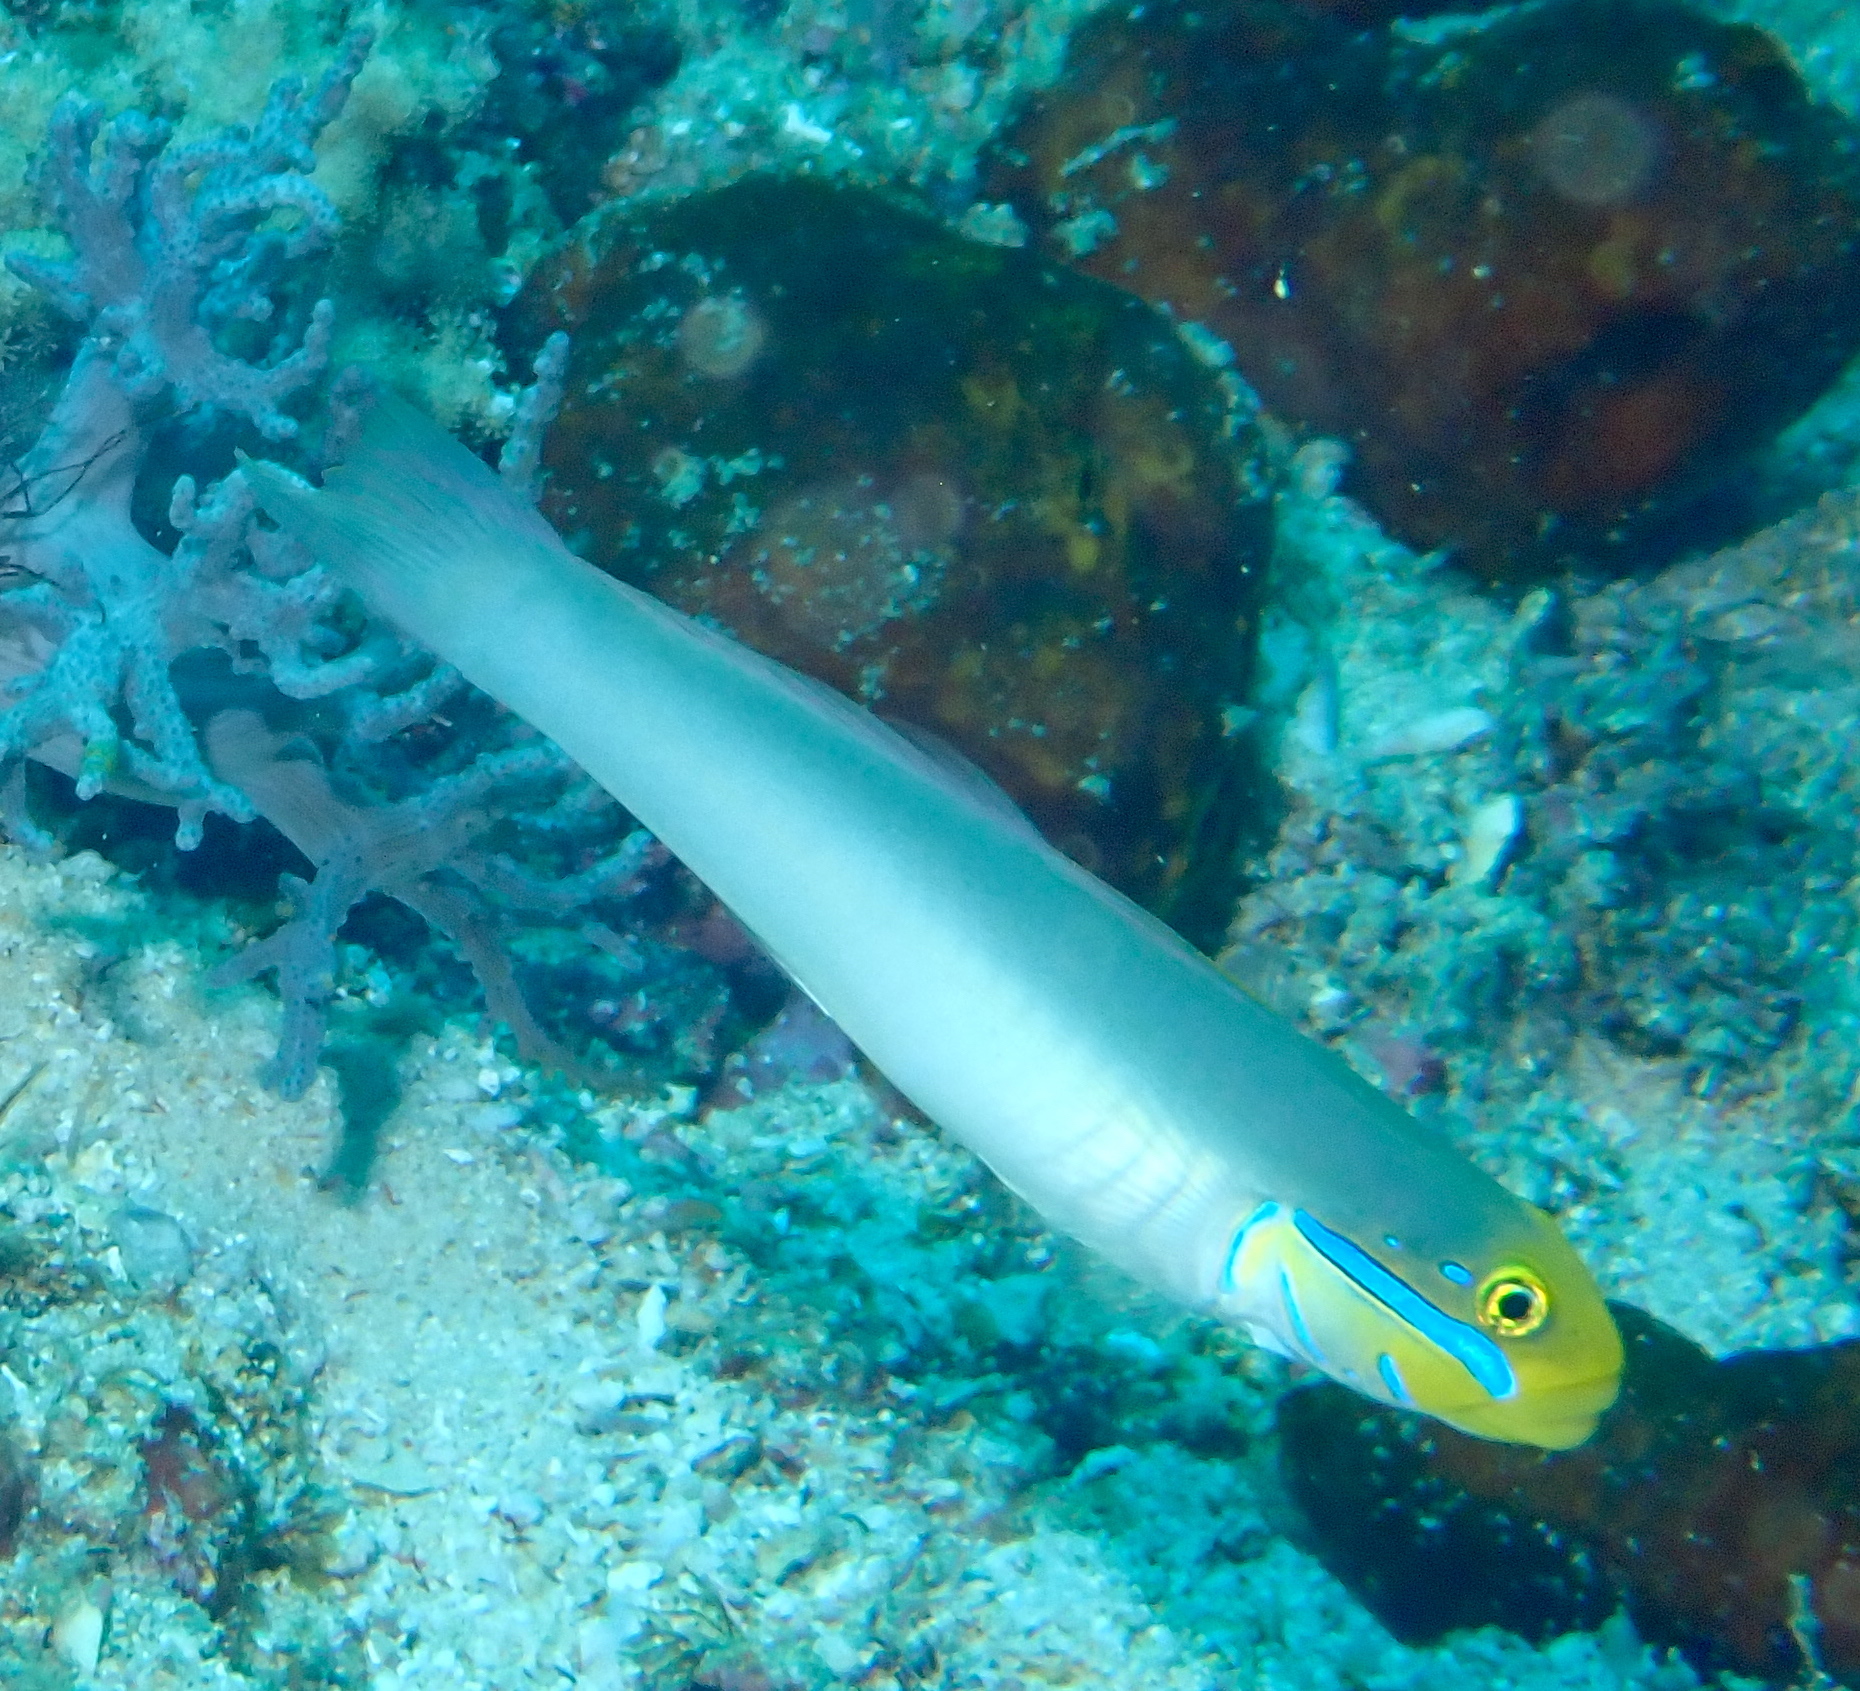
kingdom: Animalia
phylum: Chordata
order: Perciformes
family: Gobiidae
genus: Valenciennea
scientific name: Valenciennea strigata
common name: Blueband goby
